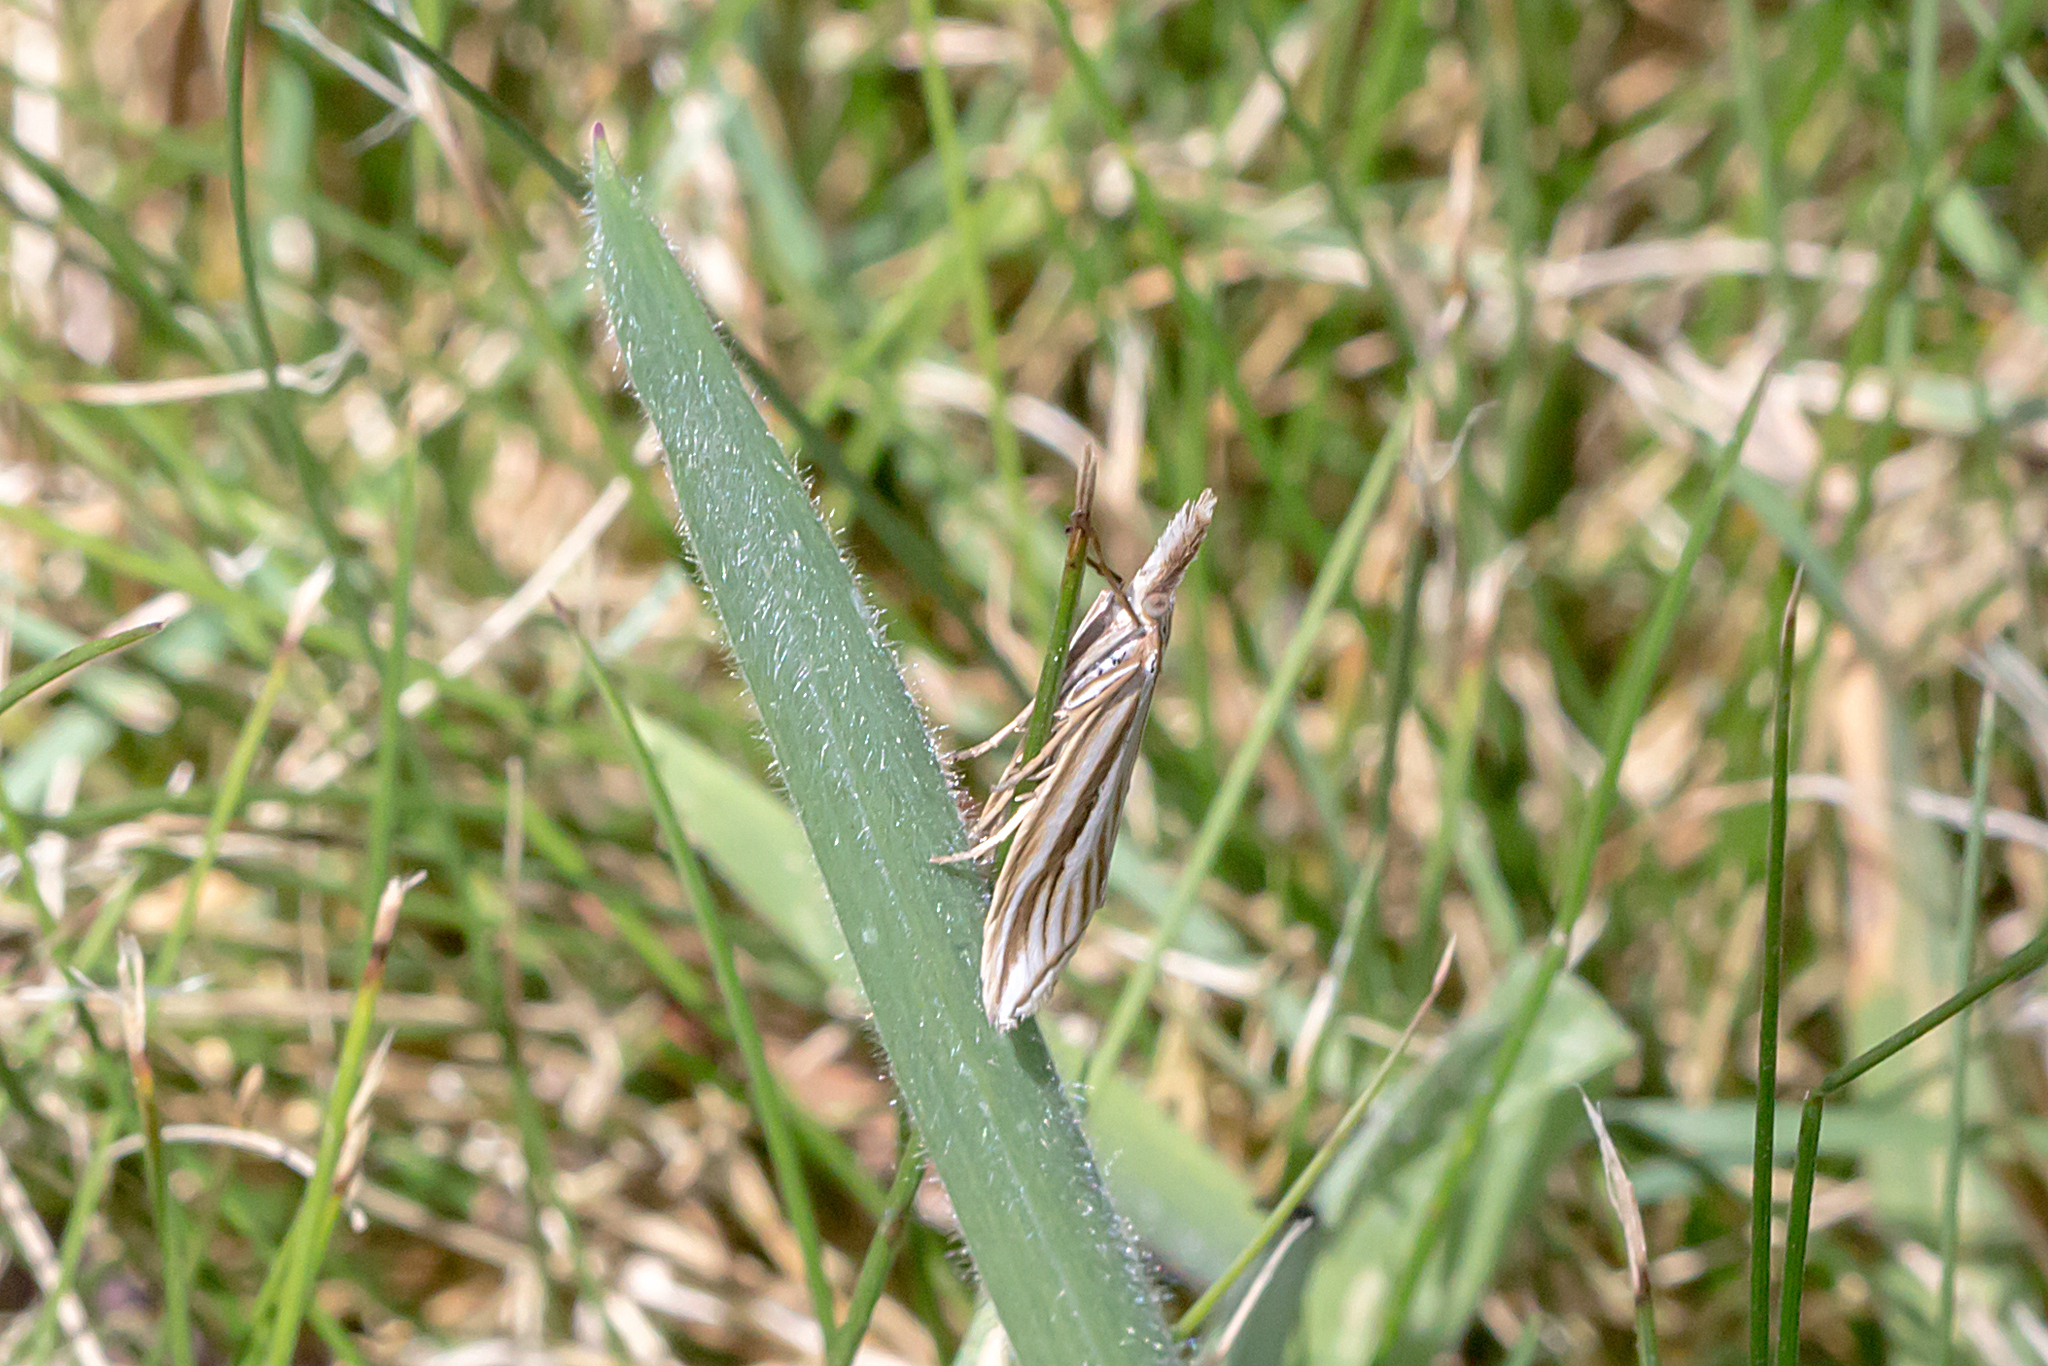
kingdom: Animalia
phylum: Arthropoda
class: Insecta
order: Lepidoptera
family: Crambidae
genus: Hednota
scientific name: Hednota grammellus
